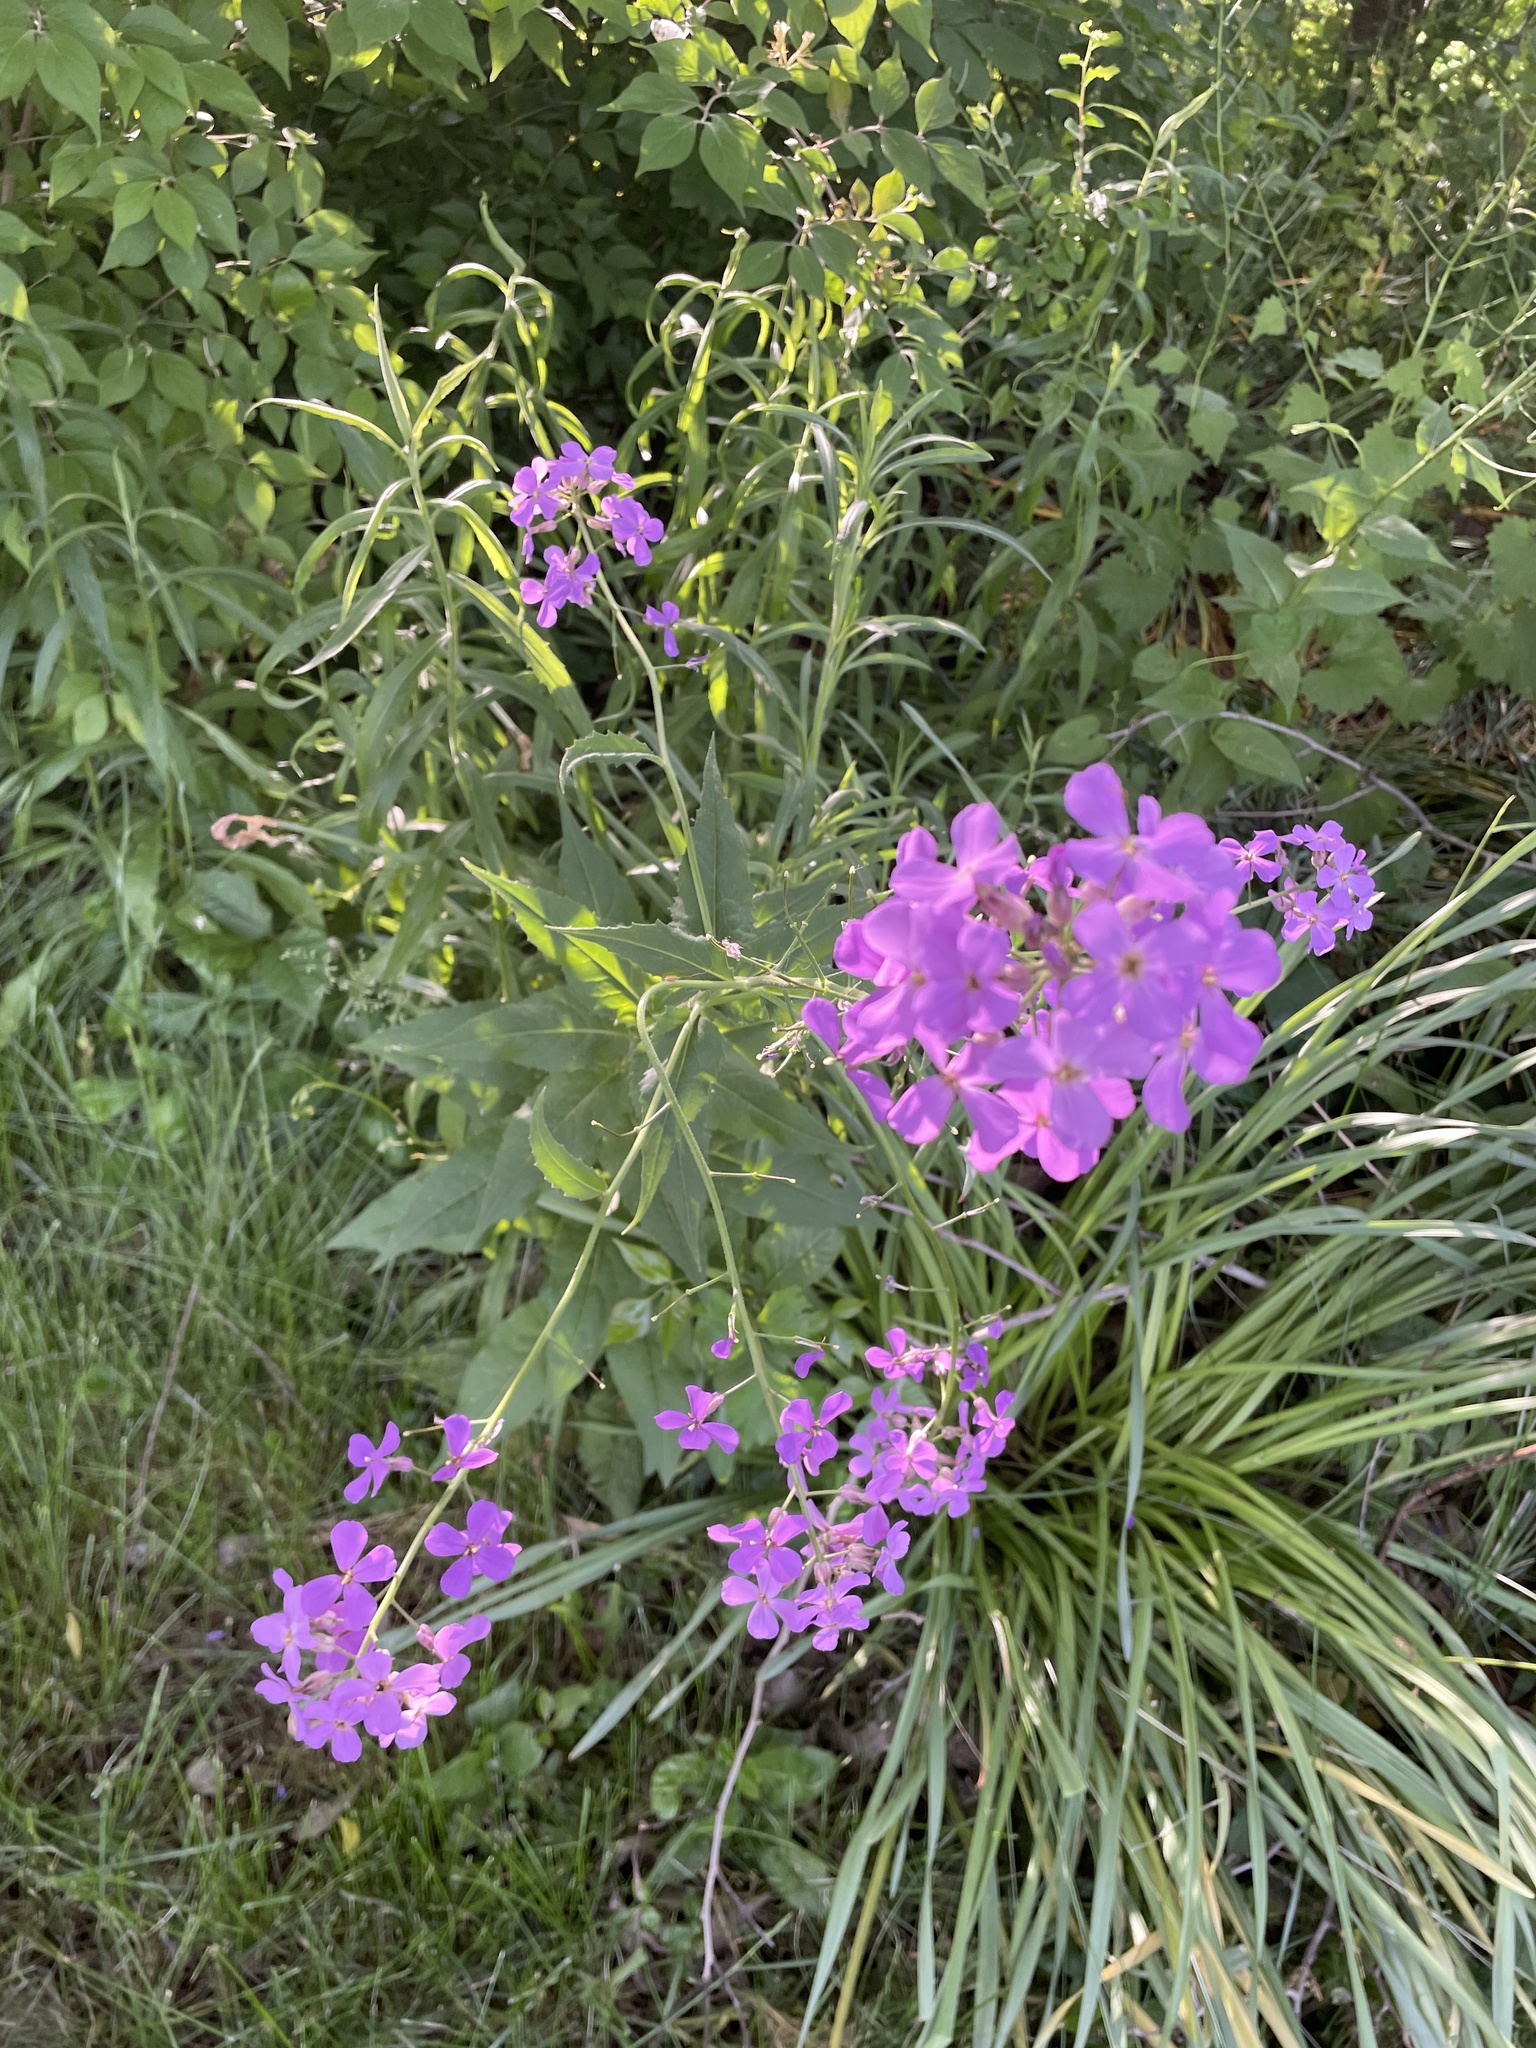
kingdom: Plantae
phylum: Tracheophyta
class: Magnoliopsida
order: Brassicales
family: Brassicaceae
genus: Hesperis
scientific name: Hesperis matronalis
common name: Dame's-violet
